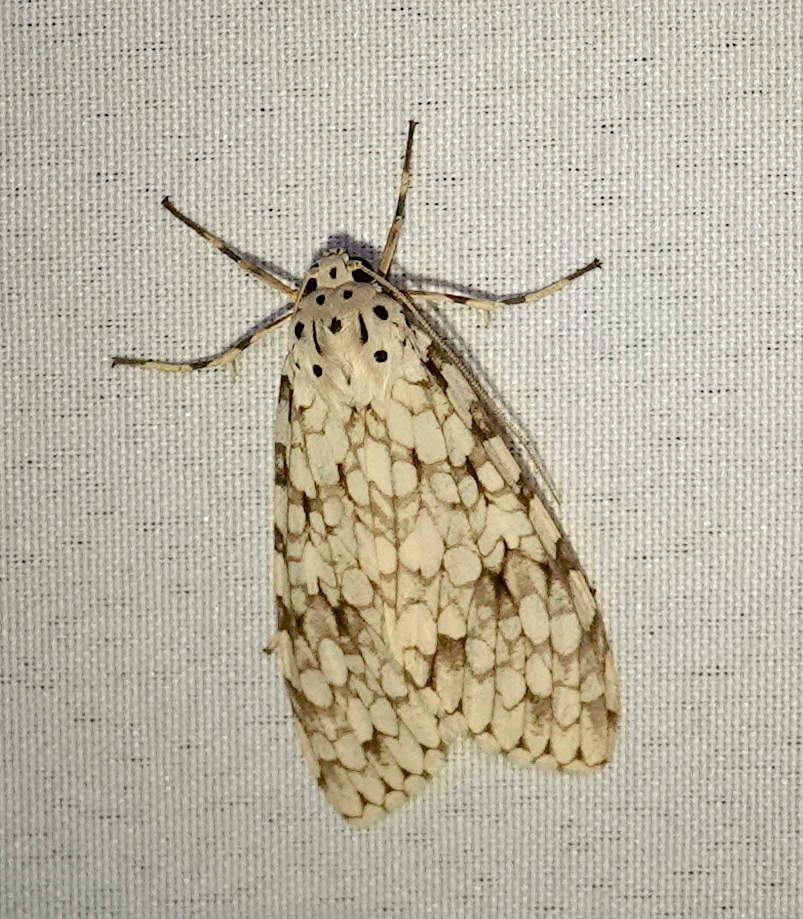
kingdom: Animalia
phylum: Arthropoda
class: Insecta
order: Lepidoptera
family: Erebidae
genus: Carales
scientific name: Carales astur
